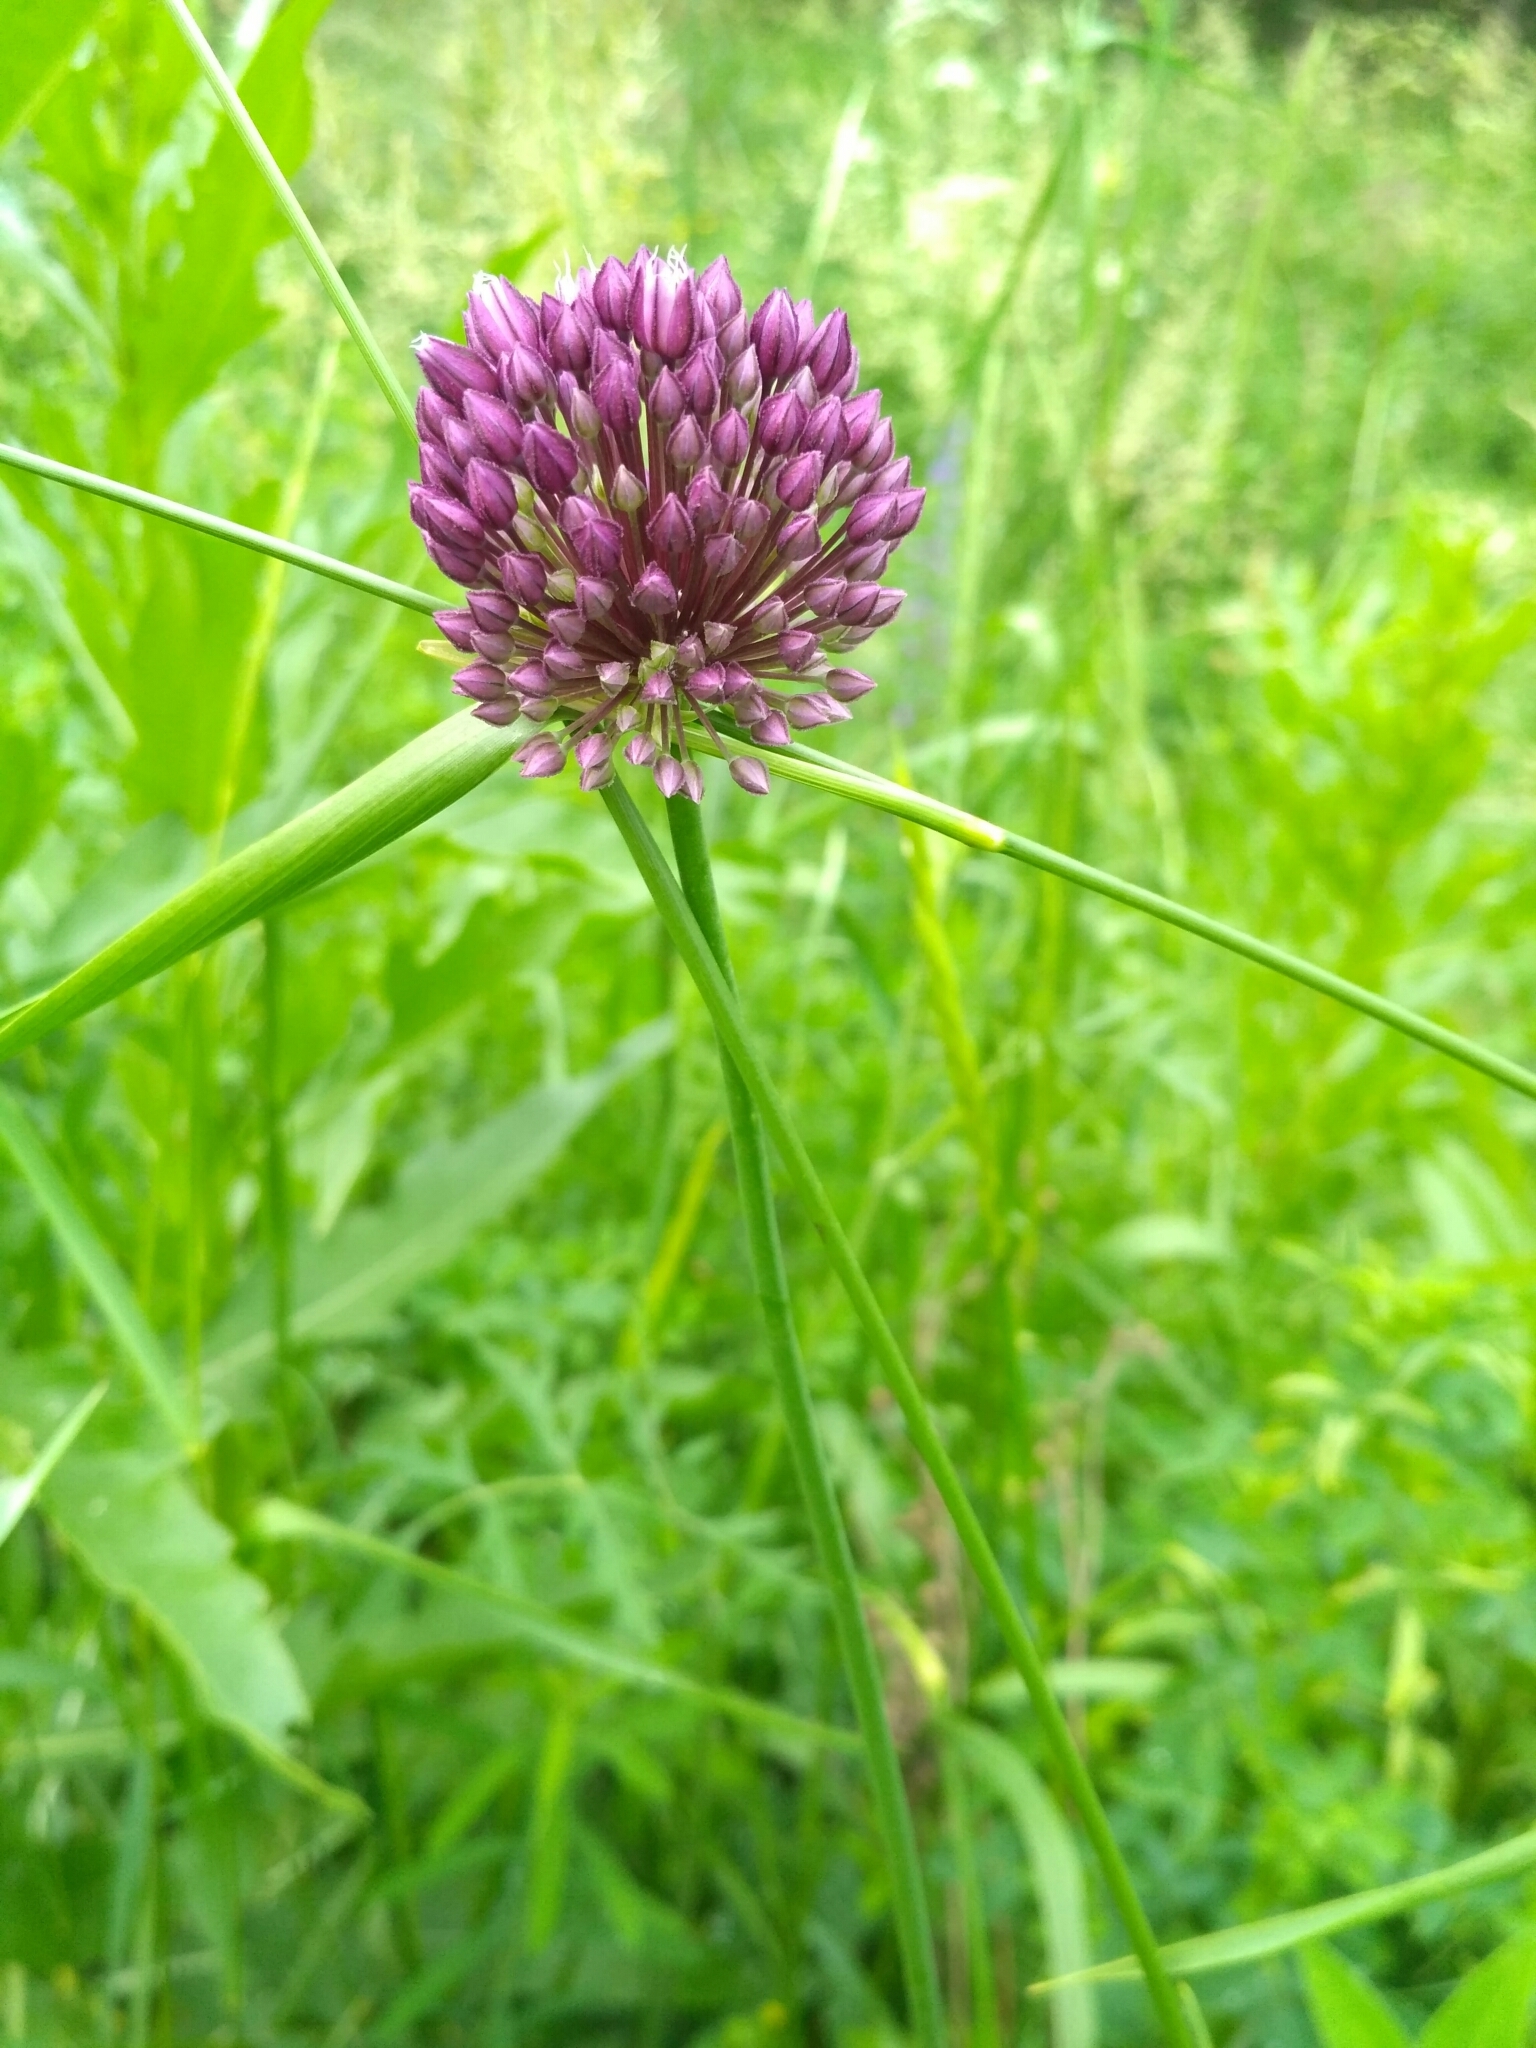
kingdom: Plantae
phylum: Tracheophyta
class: Liliopsida
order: Asparagales
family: Amaryllidaceae
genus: Allium
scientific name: Allium rotundum
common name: Sand leek
